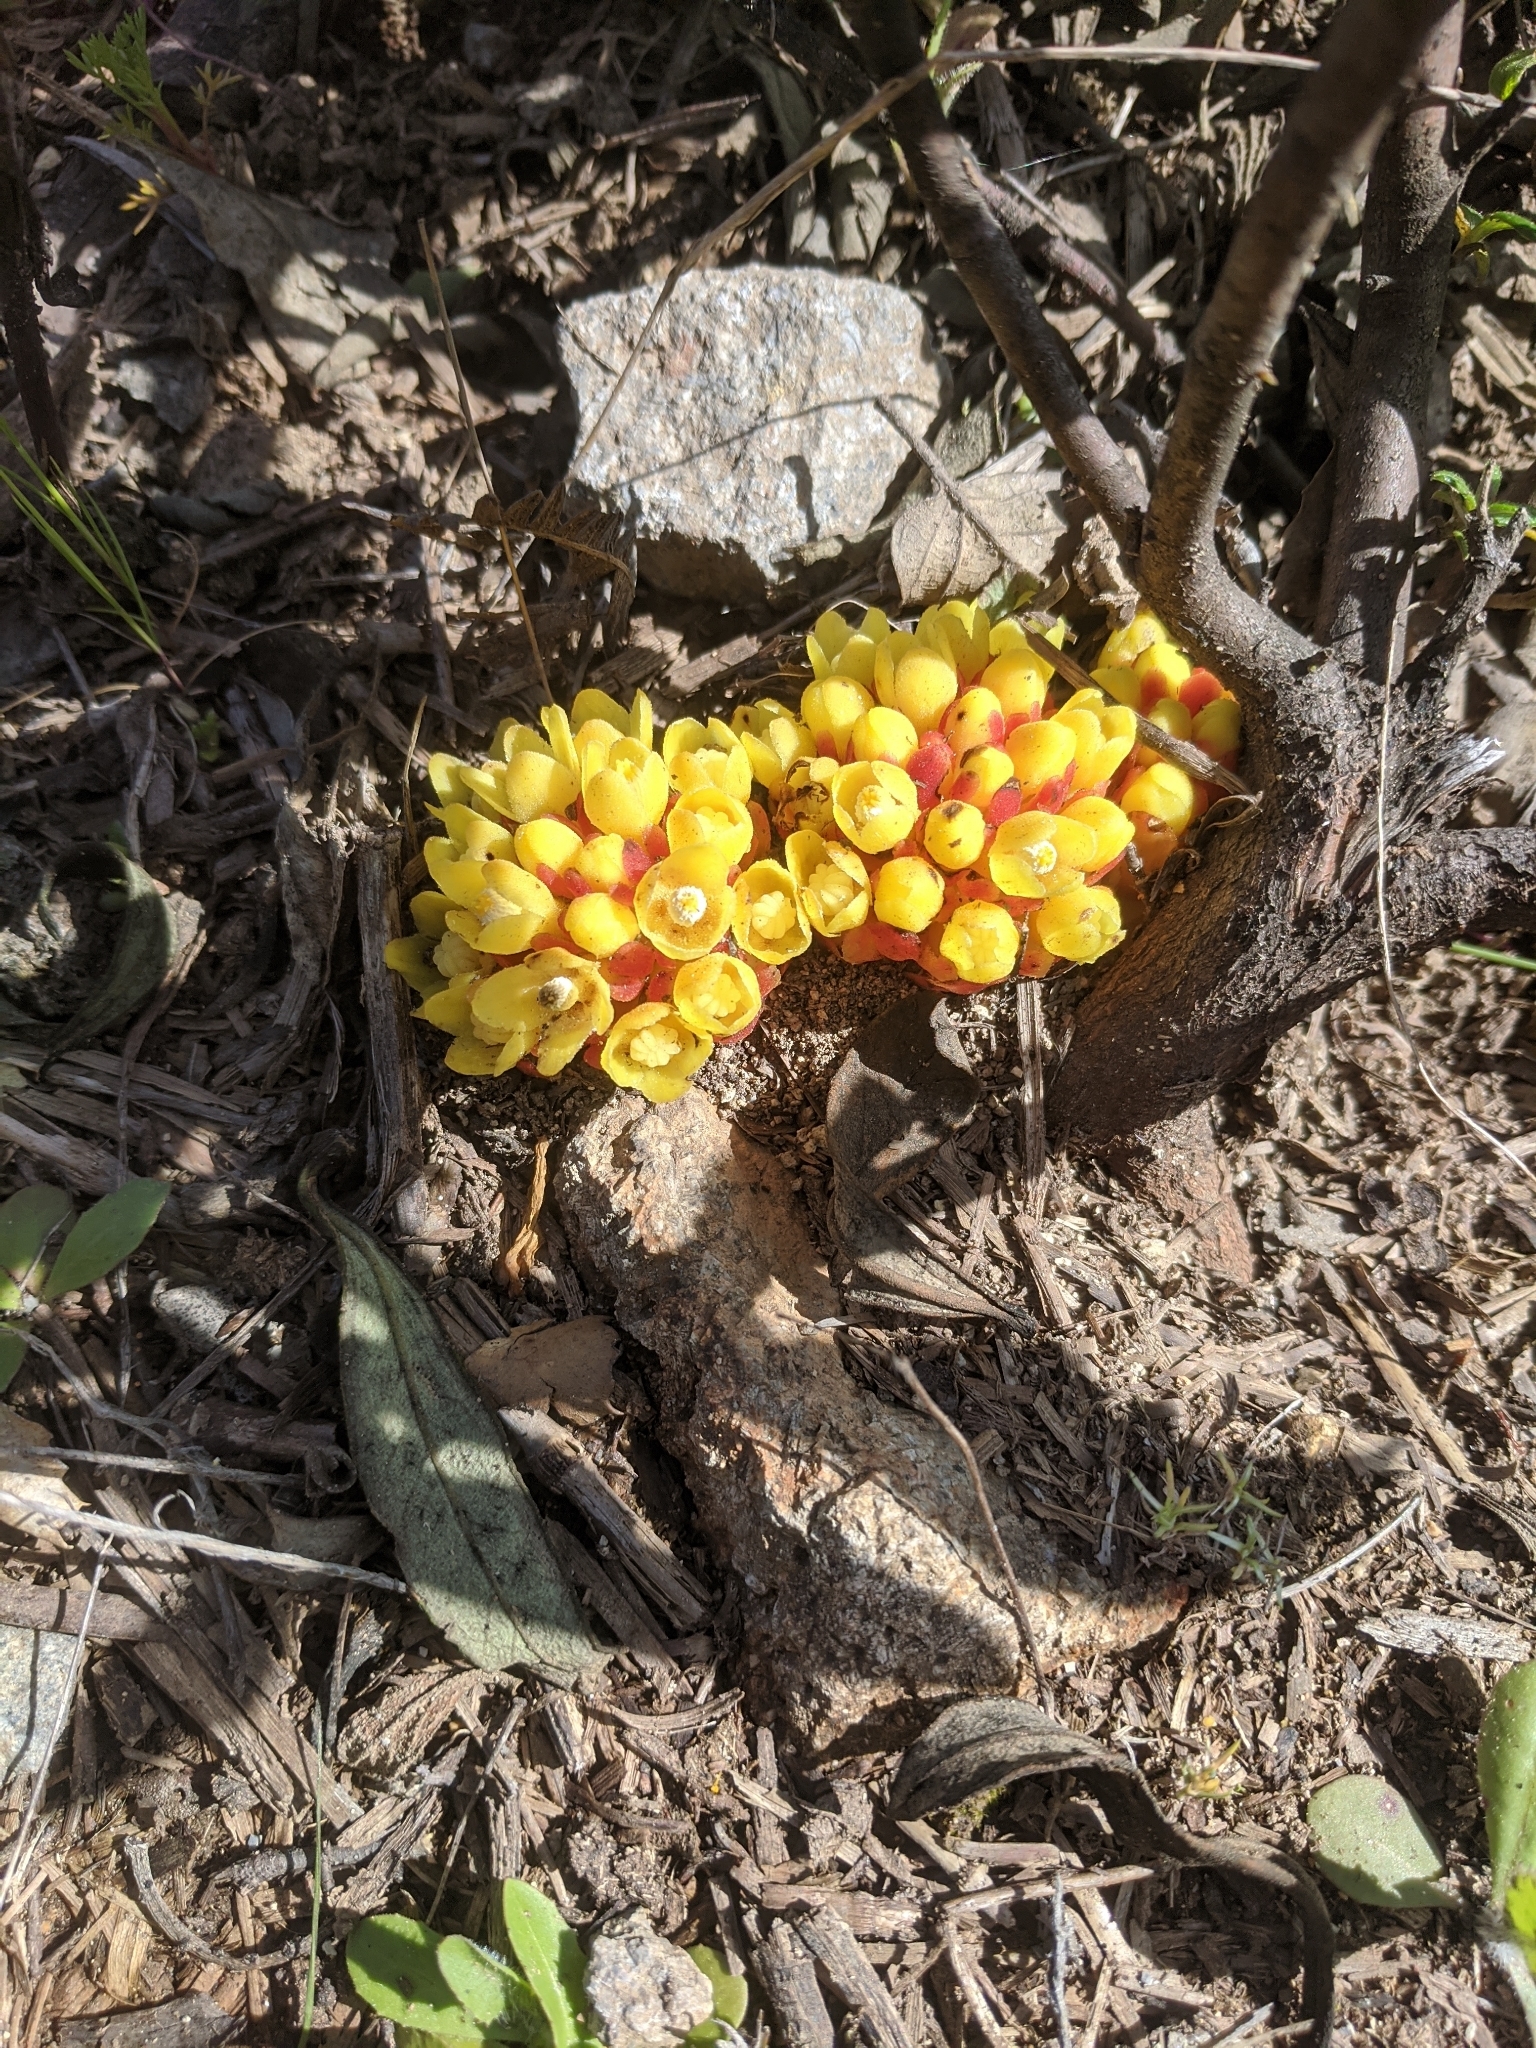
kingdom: Plantae
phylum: Tracheophyta
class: Magnoliopsida
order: Malvales
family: Cytinaceae
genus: Cytinus
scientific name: Cytinus hypocistis
